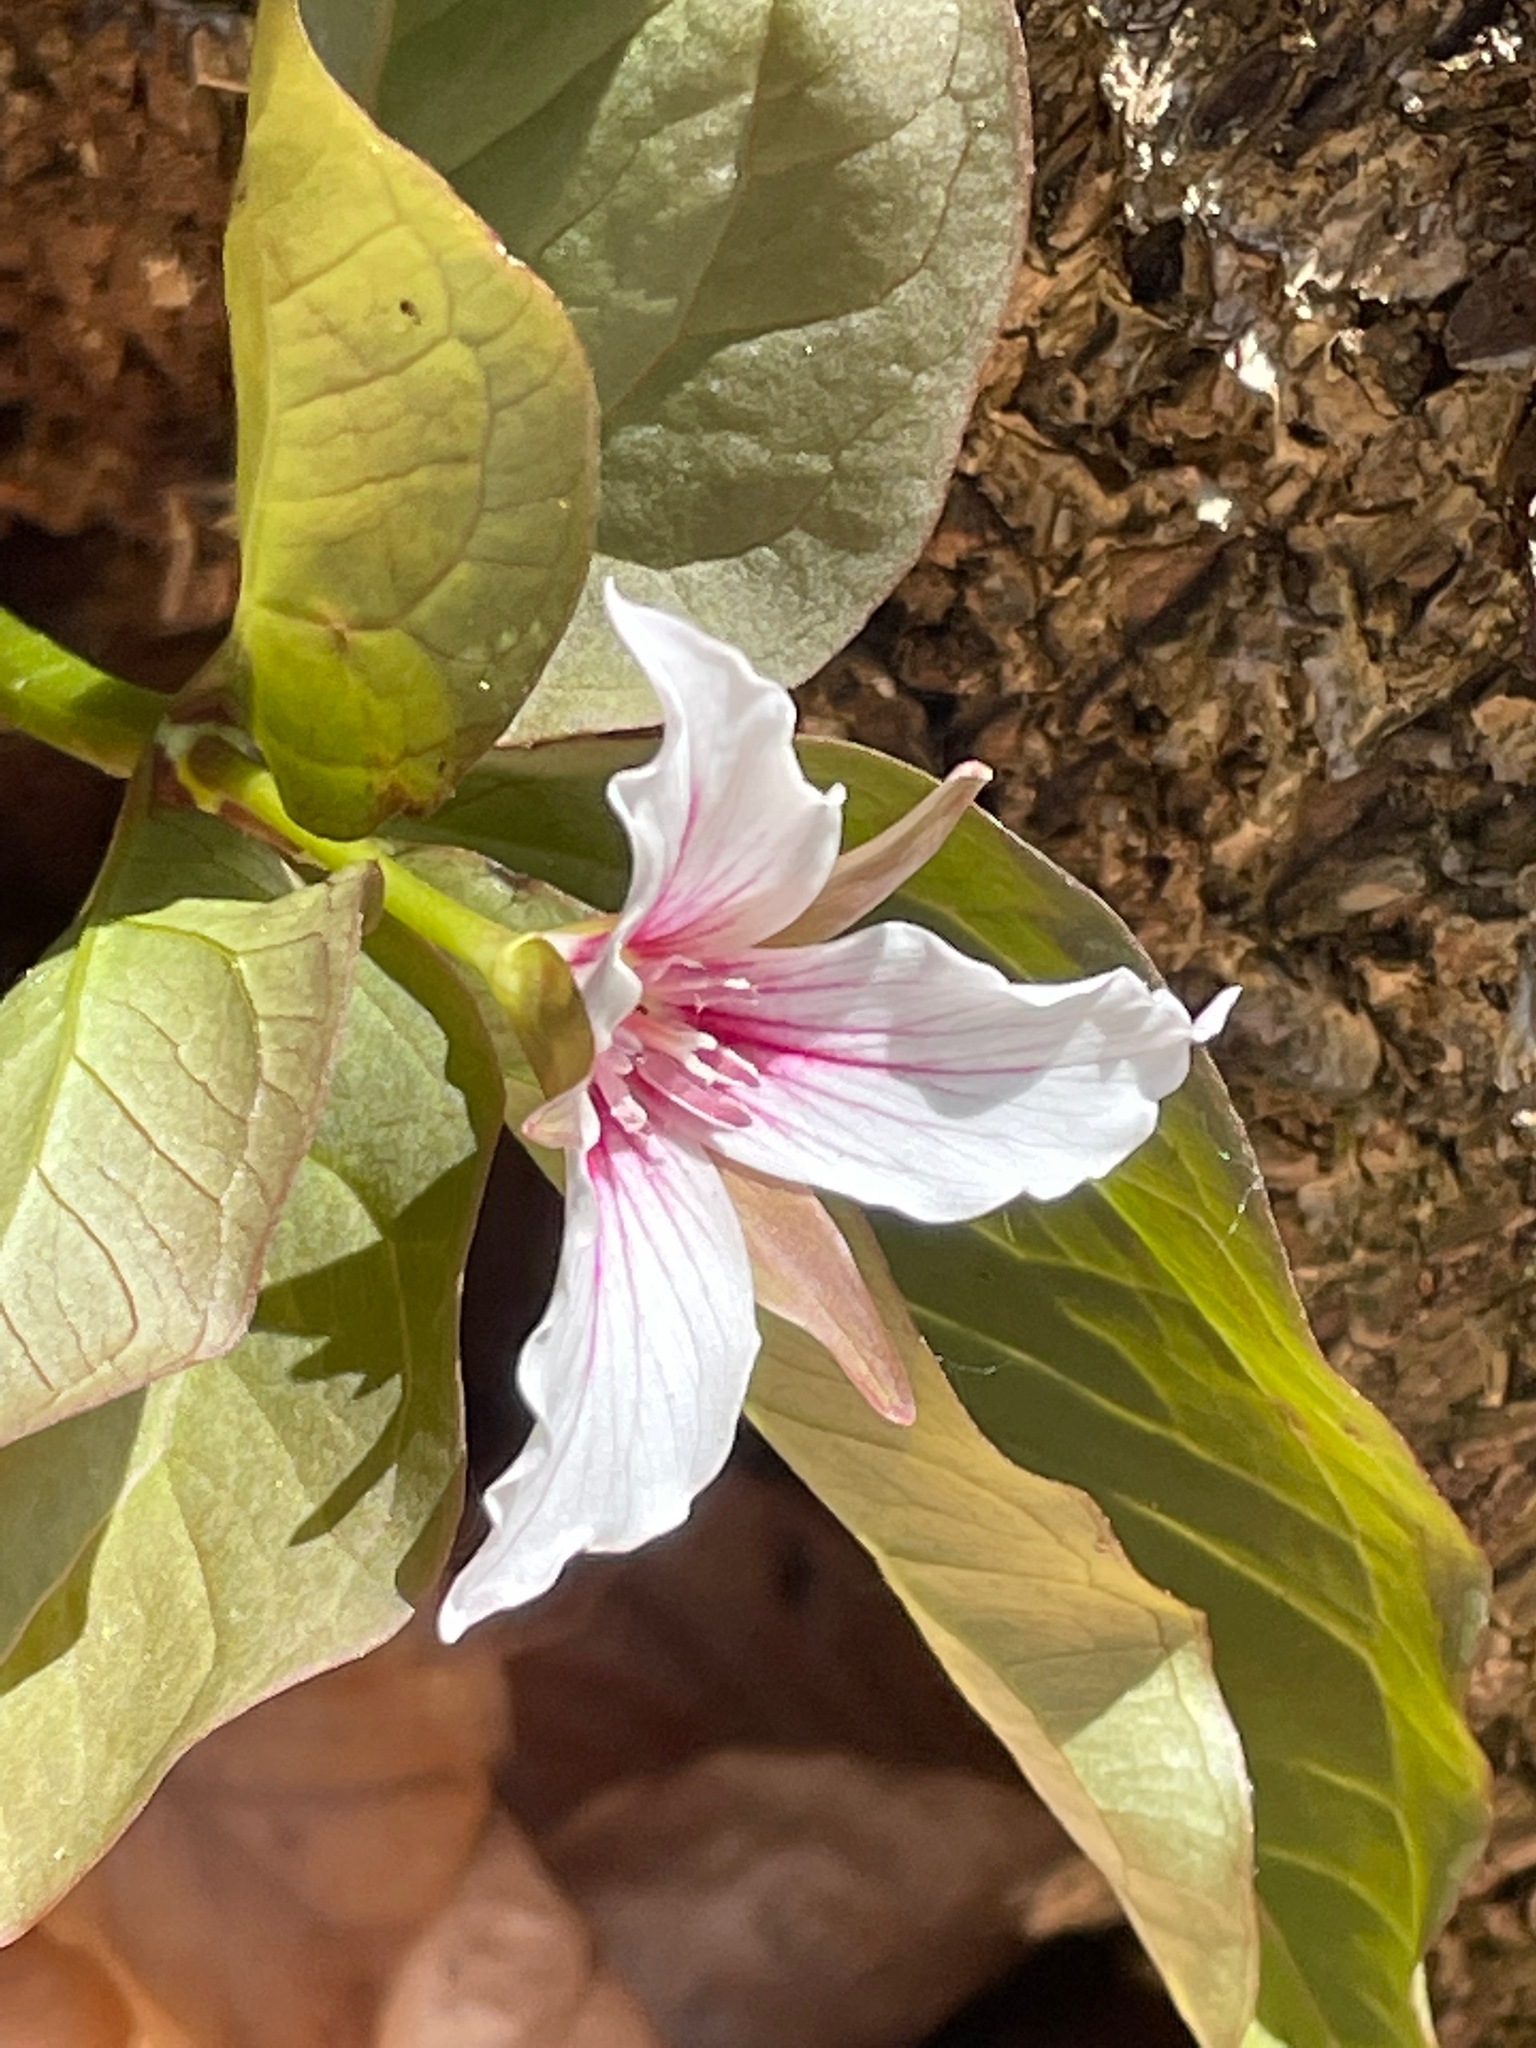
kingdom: Plantae
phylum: Tracheophyta
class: Liliopsida
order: Liliales
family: Melanthiaceae
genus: Trillium
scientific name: Trillium undulatum
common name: Paint trillium
